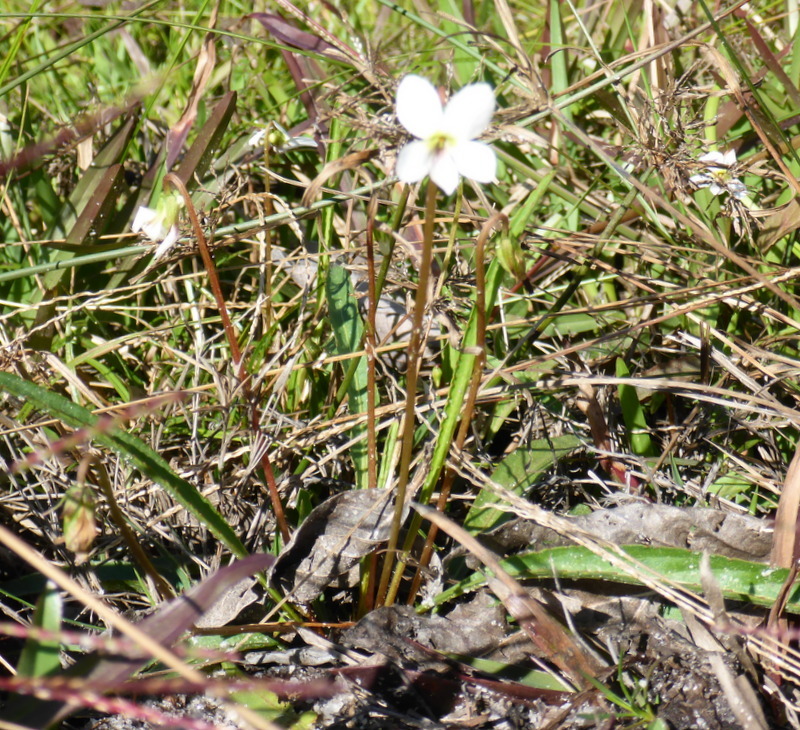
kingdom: Plantae
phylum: Tracheophyta
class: Magnoliopsida
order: Malpighiales
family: Violaceae
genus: Viola
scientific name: Viola lanceolata
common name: Bog white violet
